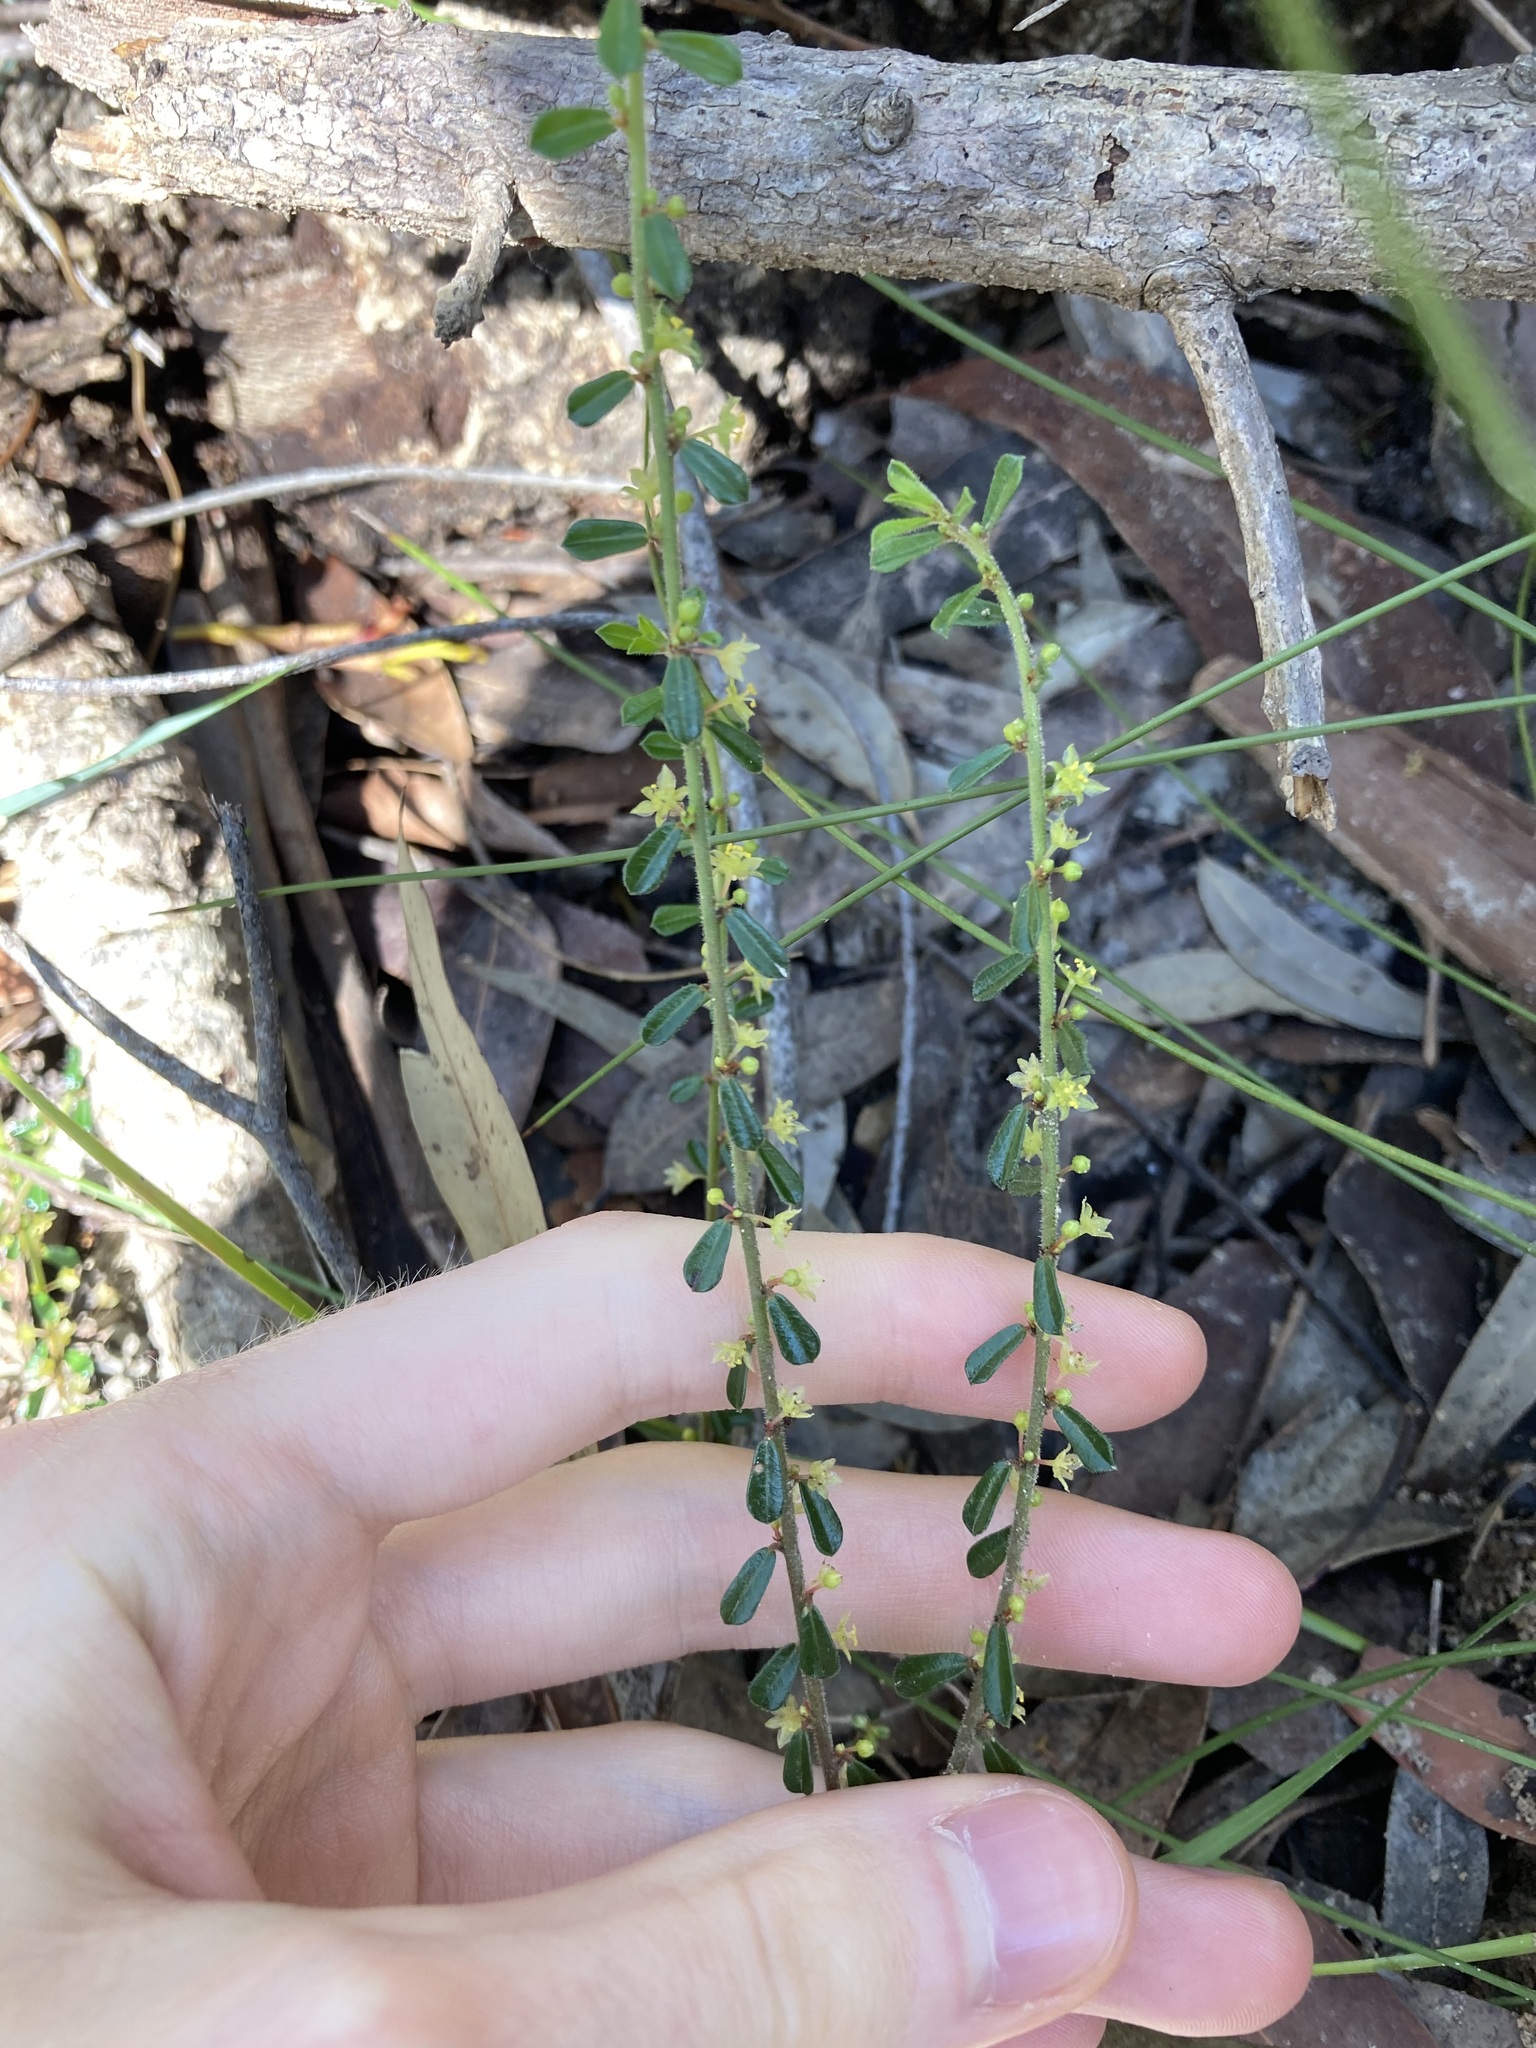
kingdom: Plantae
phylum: Tracheophyta
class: Magnoliopsida
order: Malpighiales
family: Phyllanthaceae
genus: Phyllanthus
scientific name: Phyllanthus hirtellus
